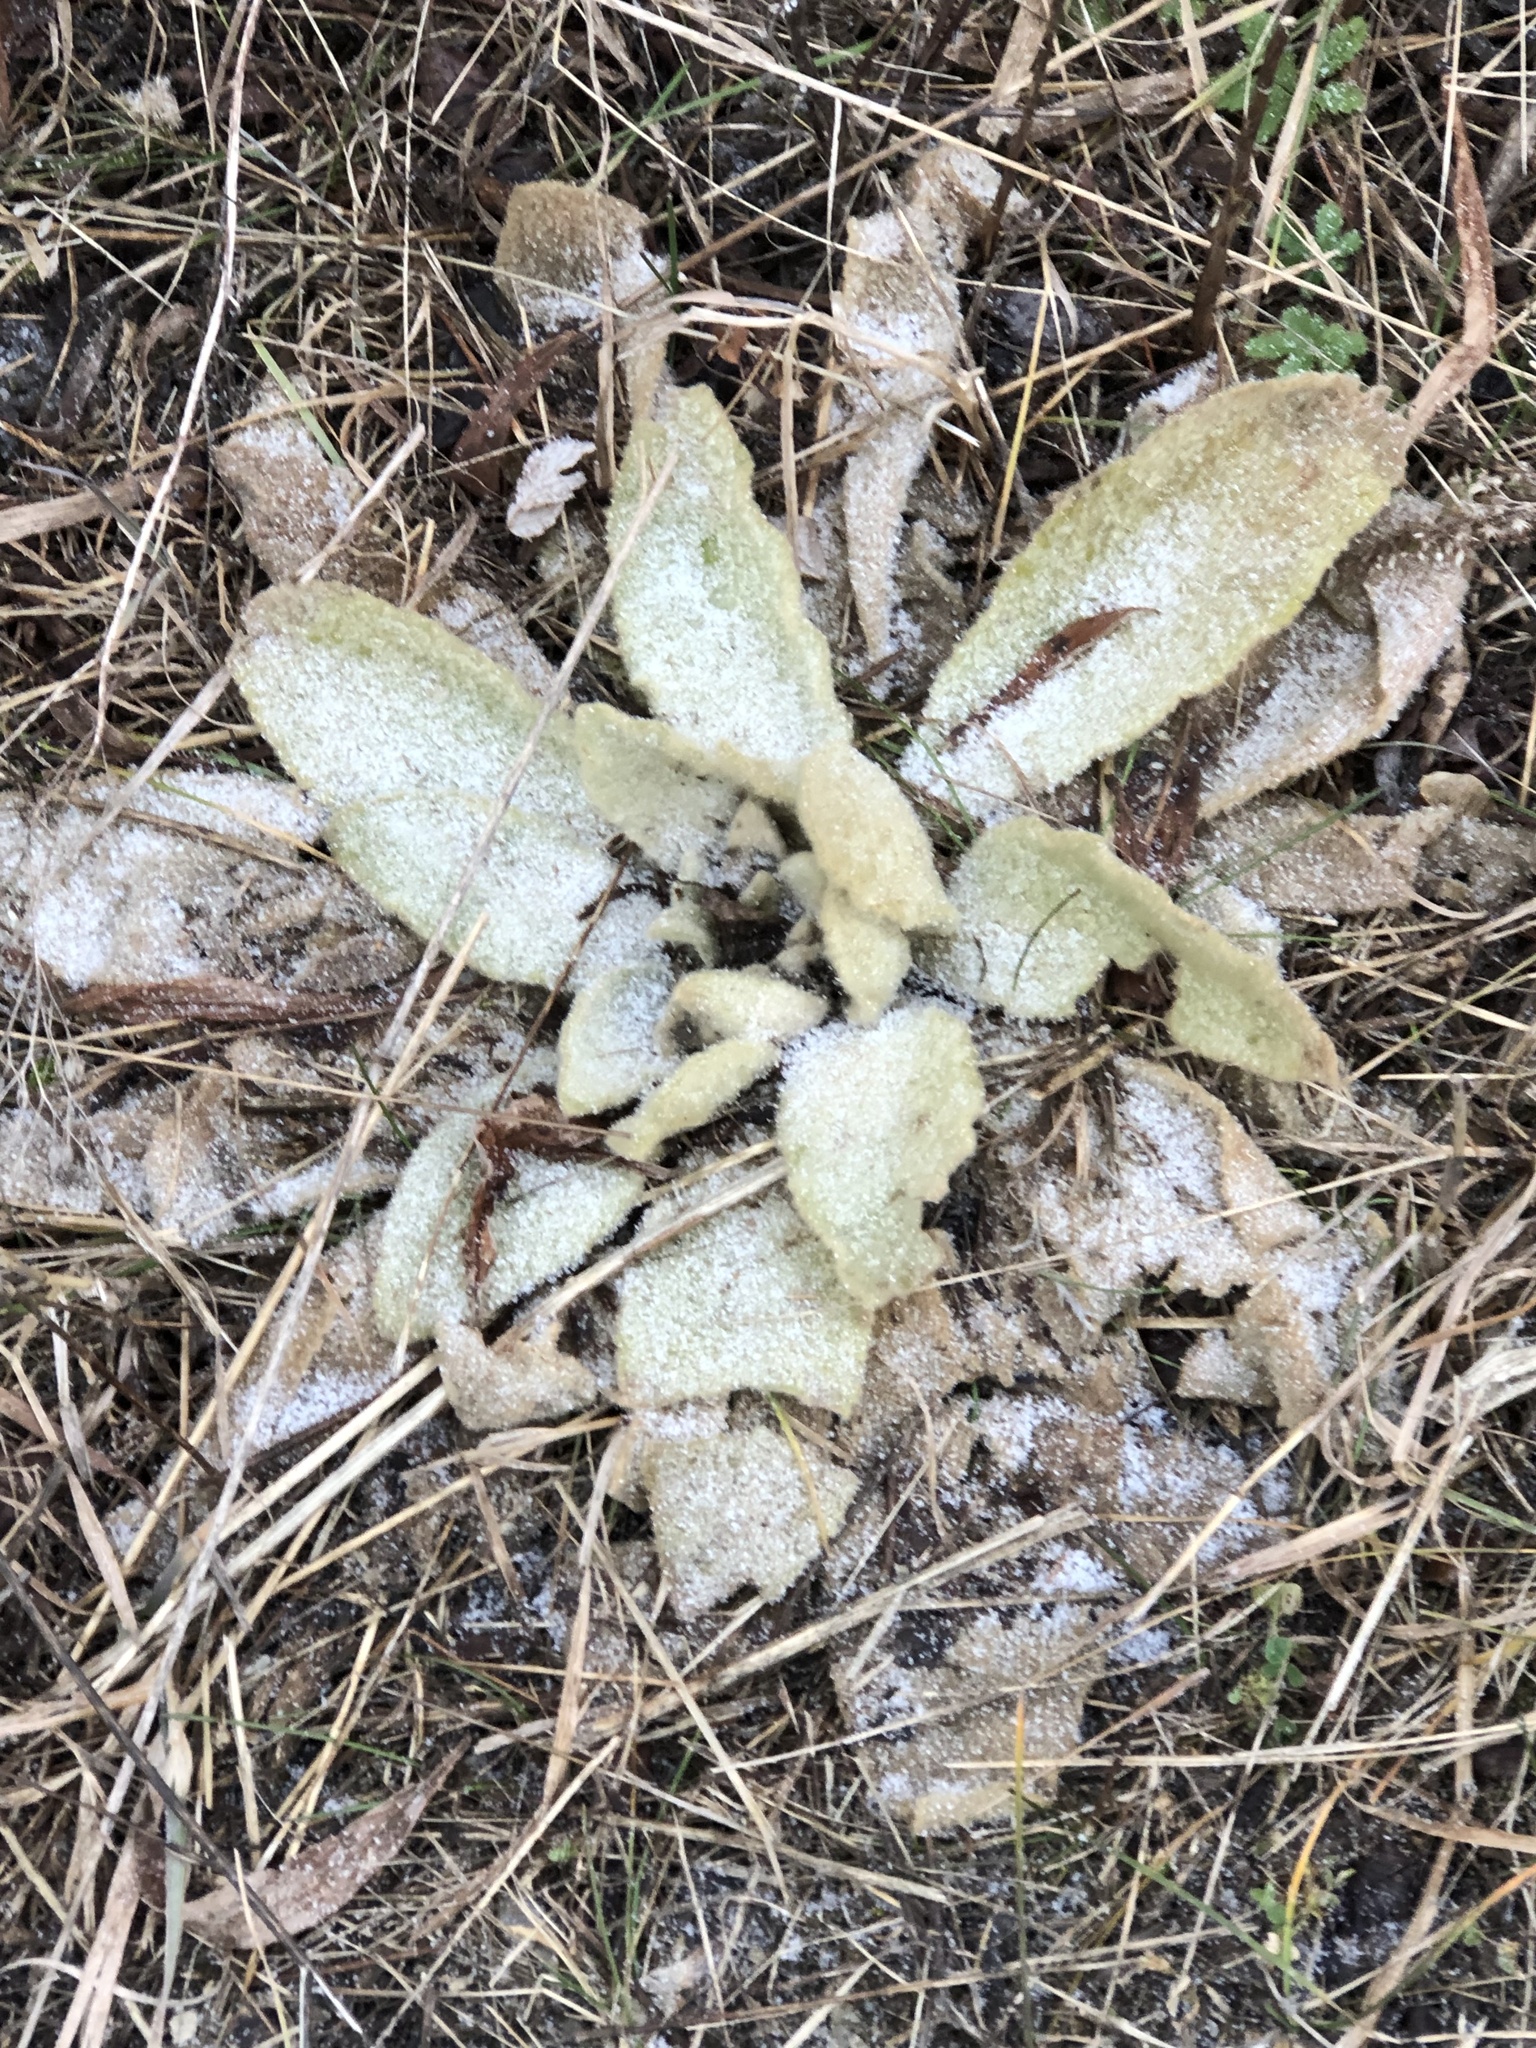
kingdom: Plantae
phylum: Tracheophyta
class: Magnoliopsida
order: Lamiales
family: Scrophulariaceae
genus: Verbascum
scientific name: Verbascum thapsus
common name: Common mullein
